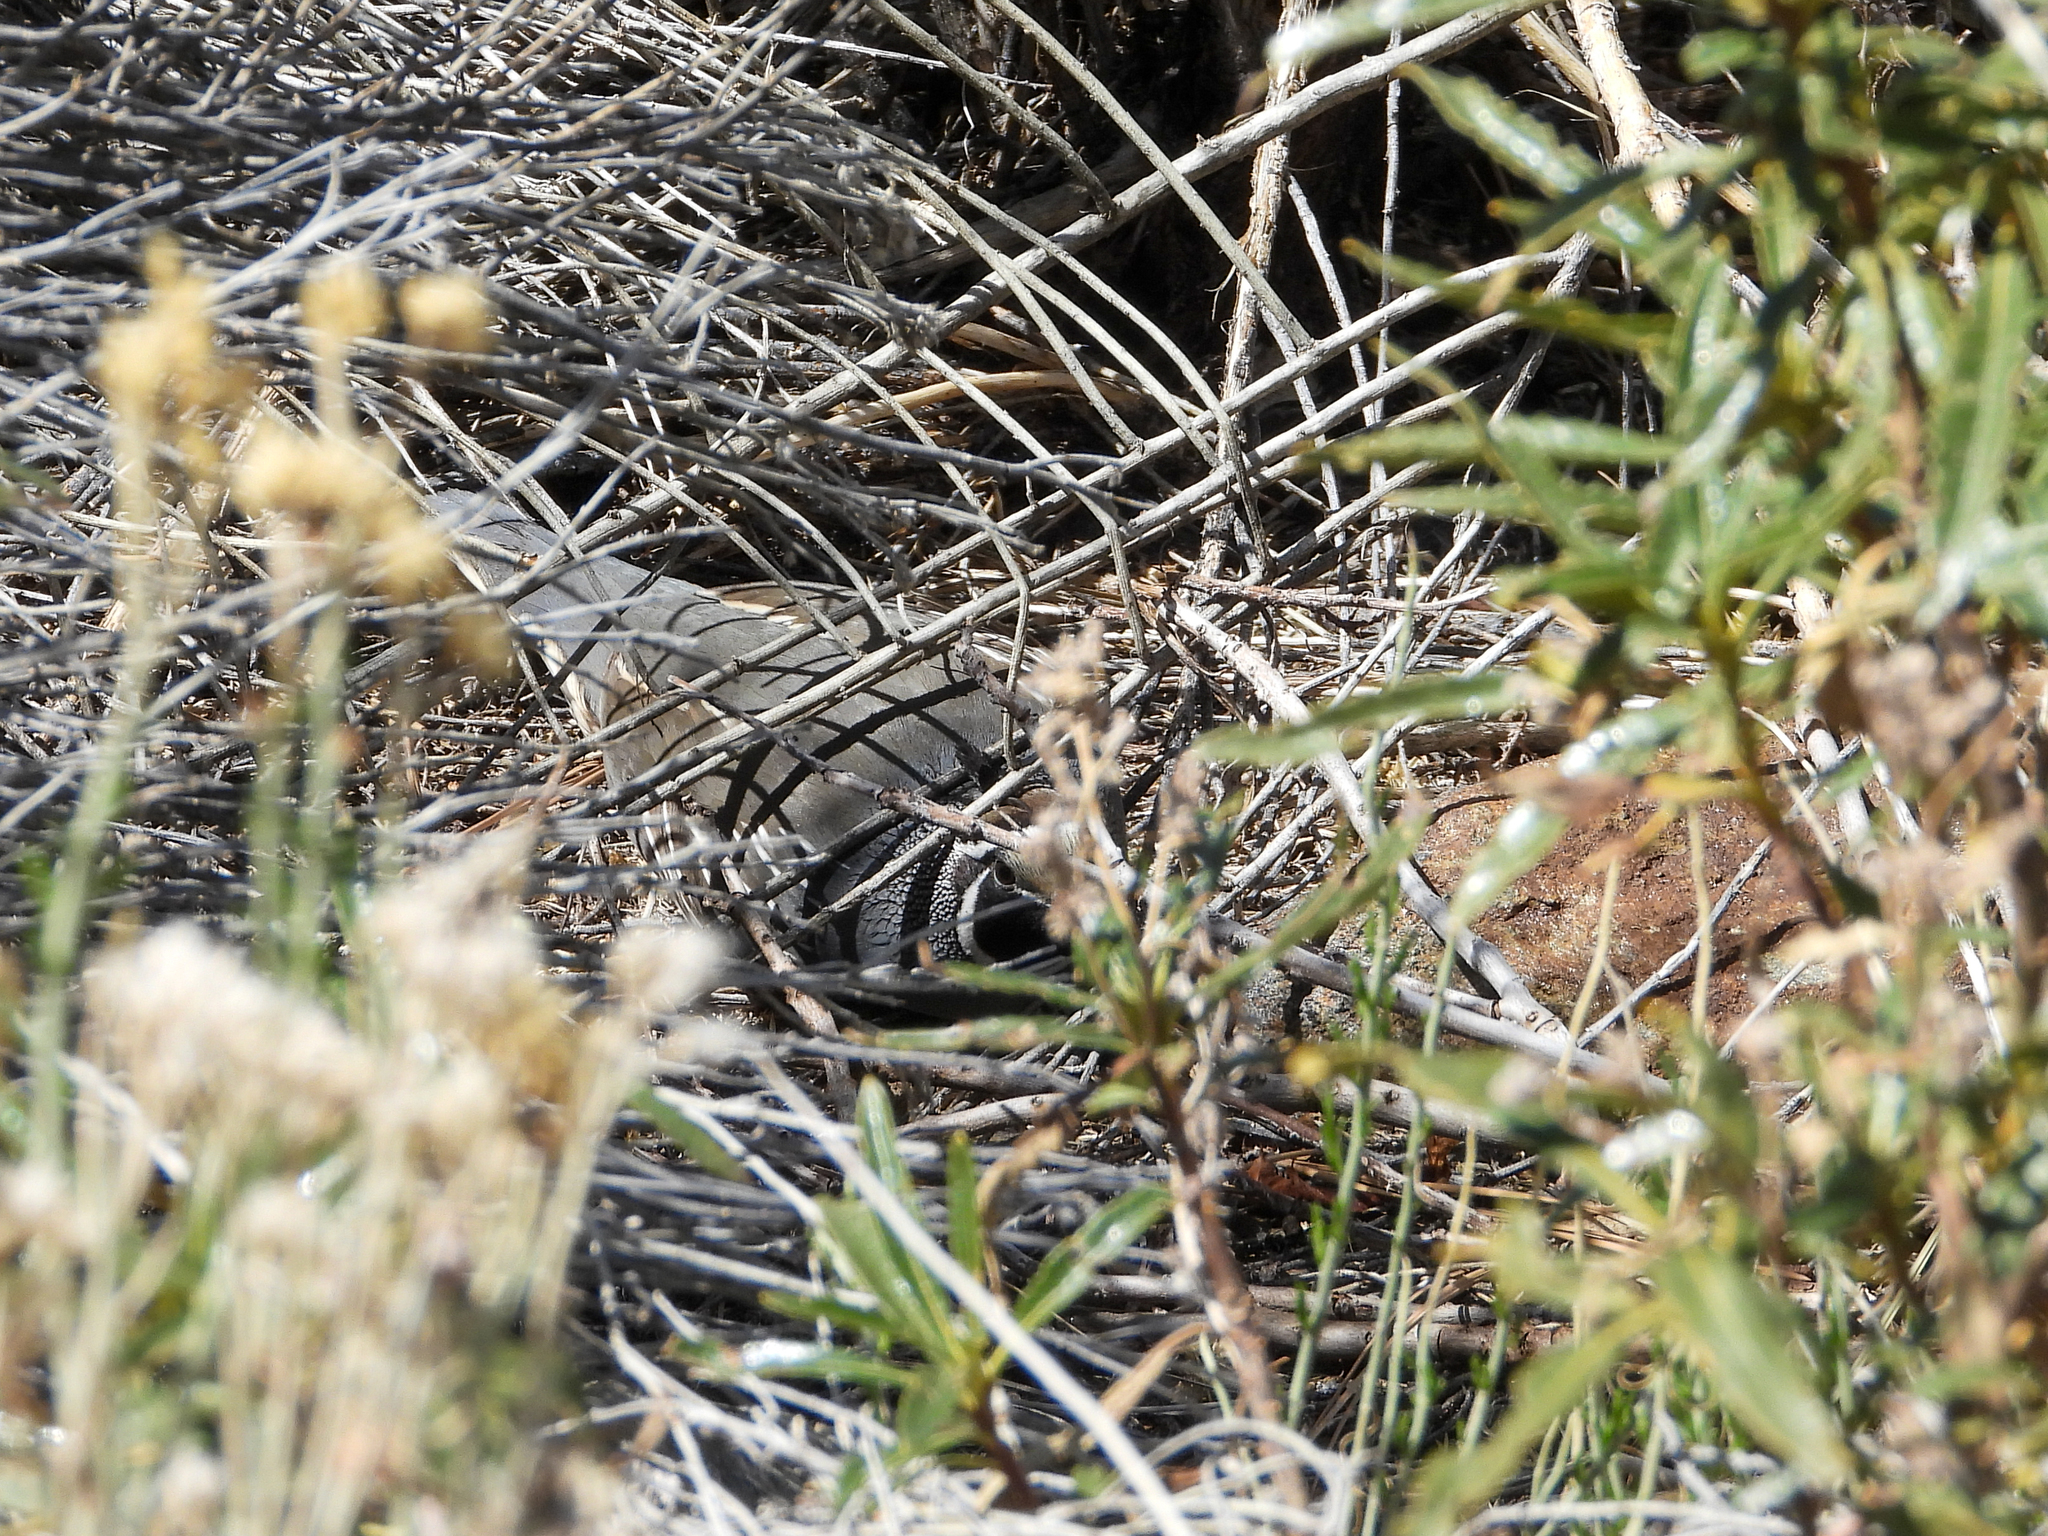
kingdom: Animalia
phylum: Chordata
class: Aves
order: Galliformes
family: Odontophoridae
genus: Callipepla
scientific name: Callipepla californica
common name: California quail
